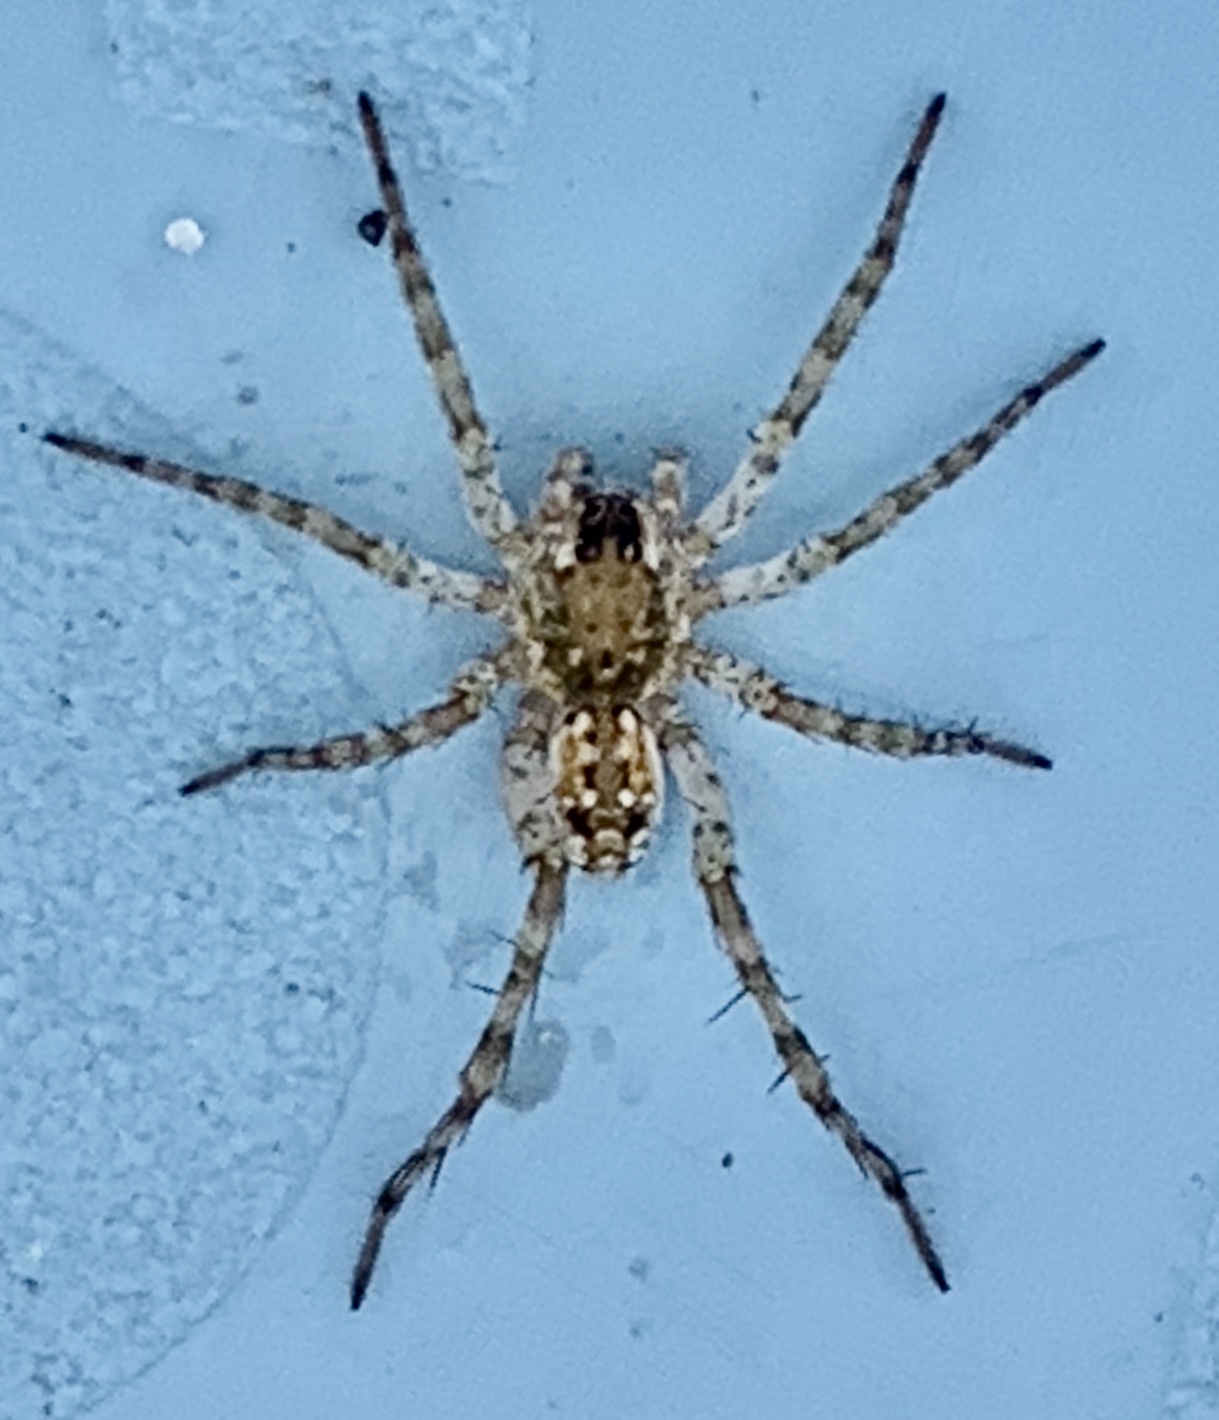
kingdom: Animalia
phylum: Arthropoda
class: Arachnida
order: Araneae
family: Lycosidae
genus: Arctosa
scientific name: Arctosa littoralis
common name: Wolf spiders
